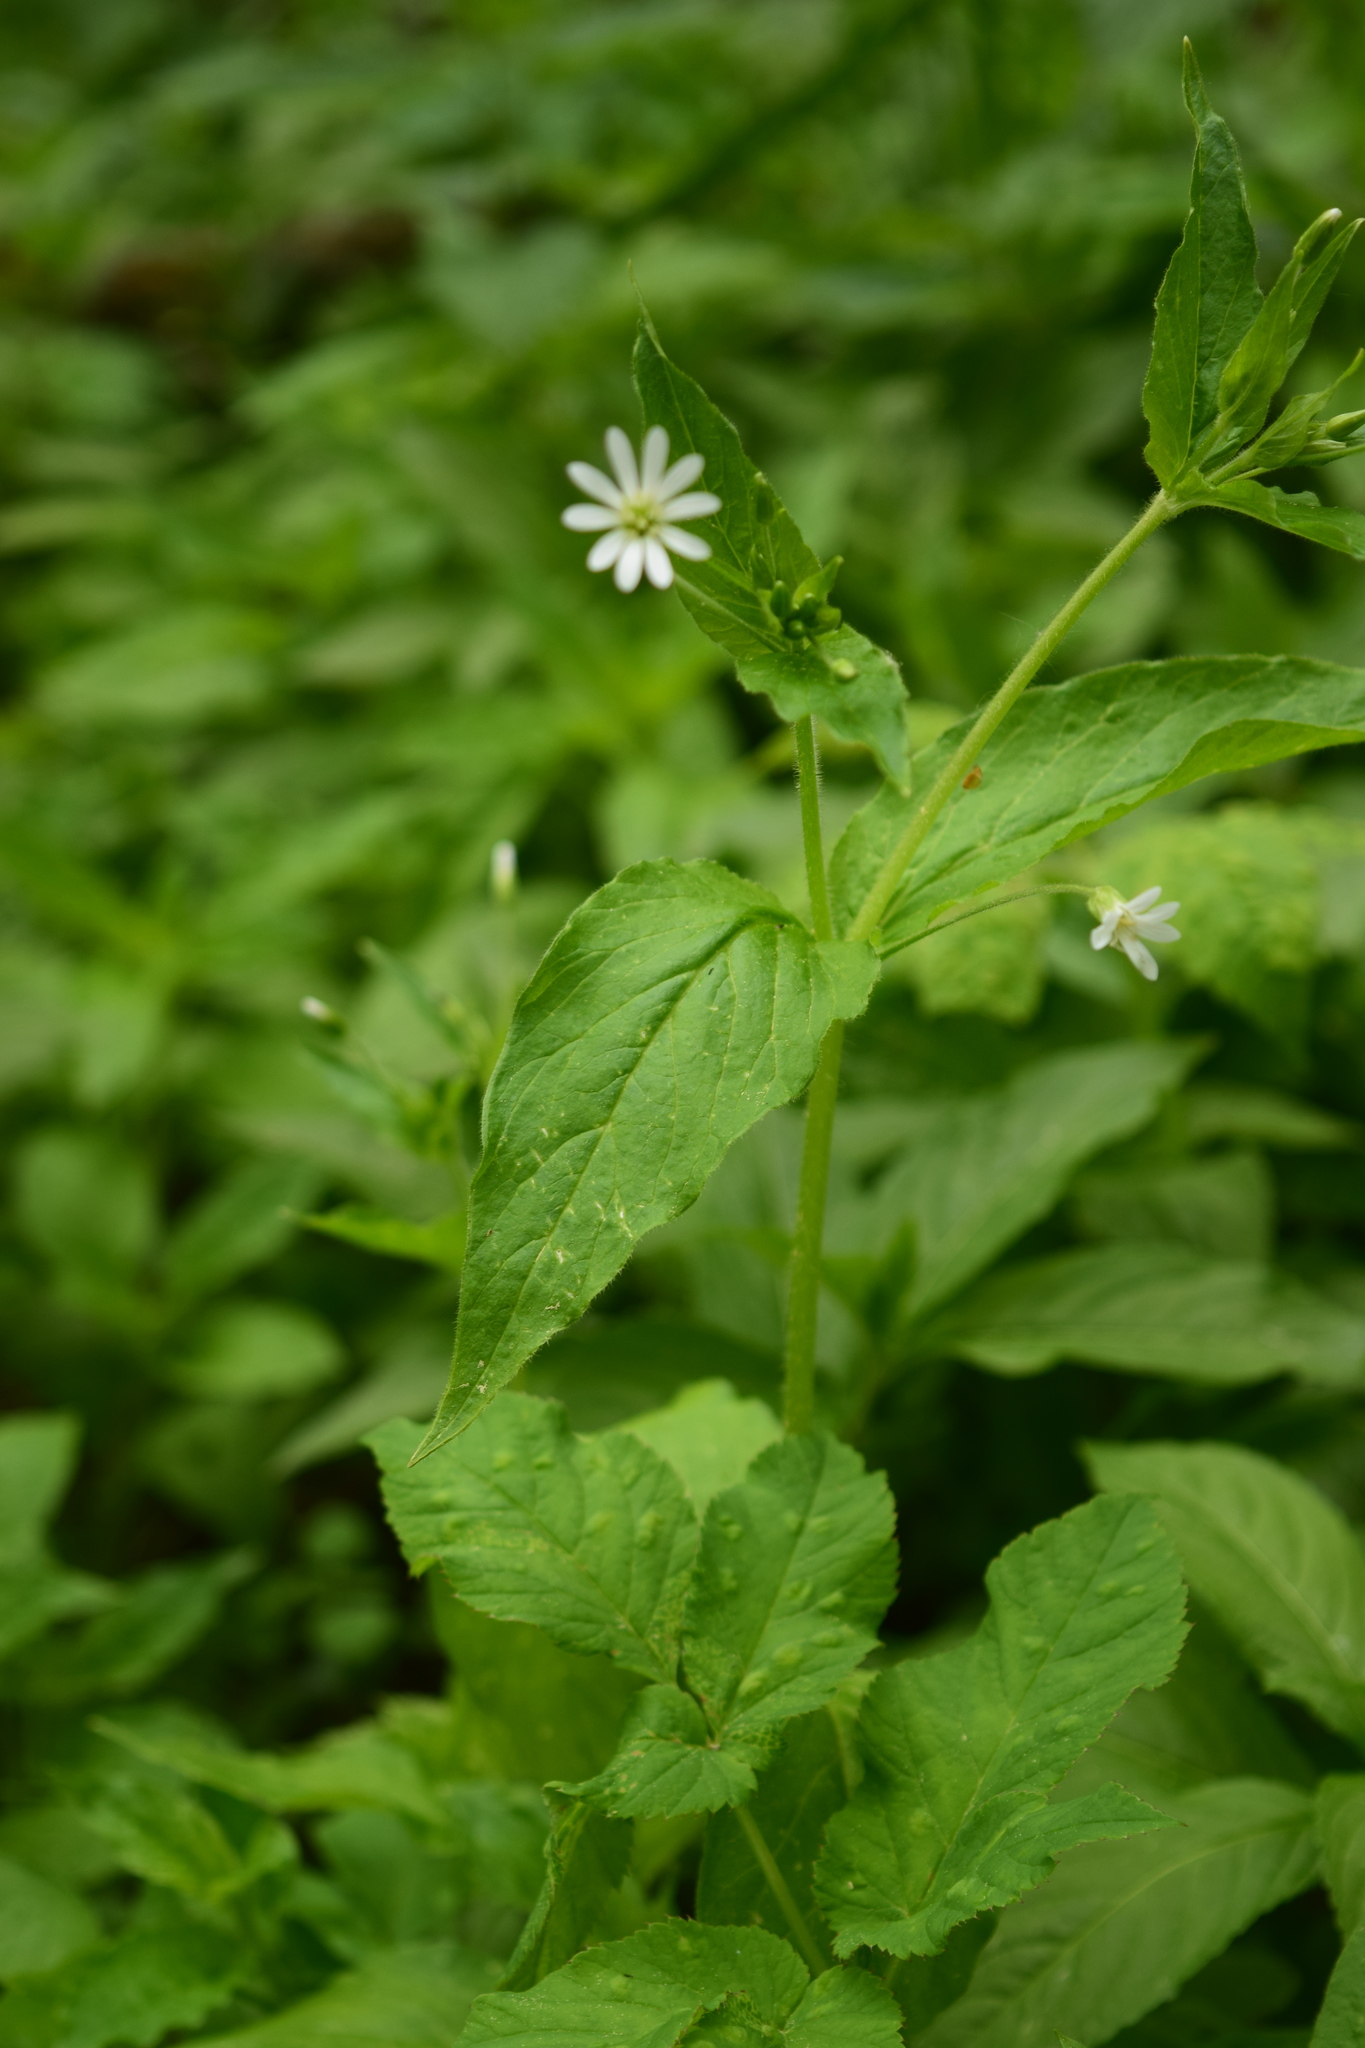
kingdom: Plantae
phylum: Tracheophyta
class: Magnoliopsida
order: Caryophyllales
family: Caryophyllaceae
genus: Stellaria
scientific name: Stellaria nemorum
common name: Wood stitchwort
